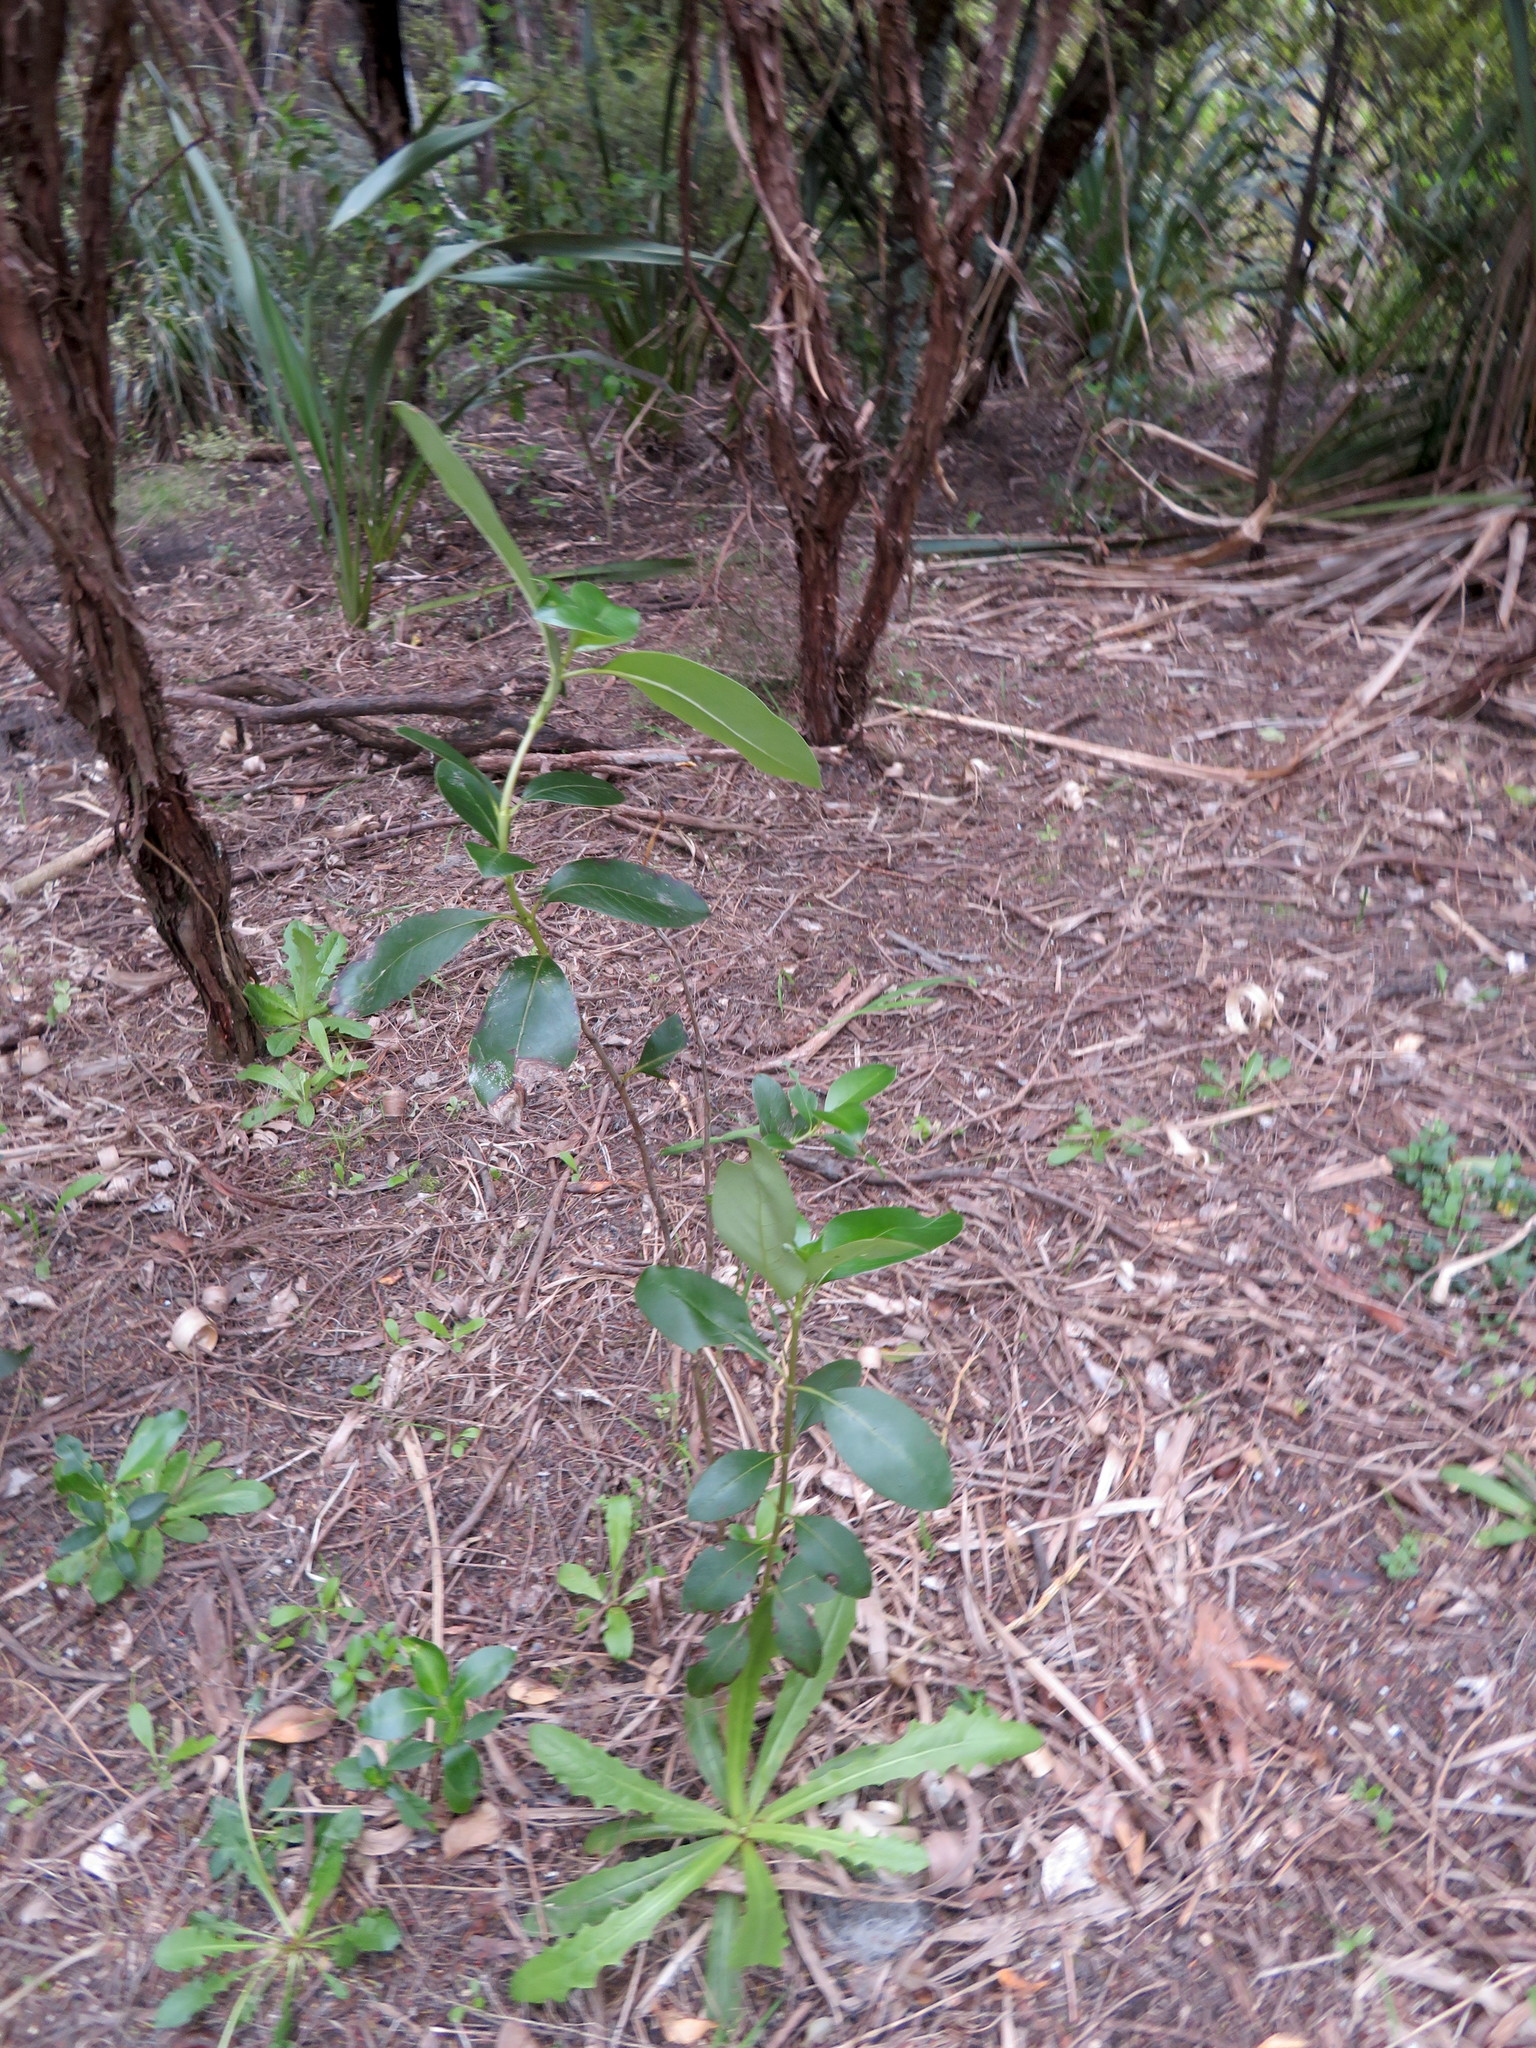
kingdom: Plantae
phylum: Tracheophyta
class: Magnoliopsida
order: Gentianales
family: Rubiaceae
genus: Coprosma
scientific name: Coprosma robusta
